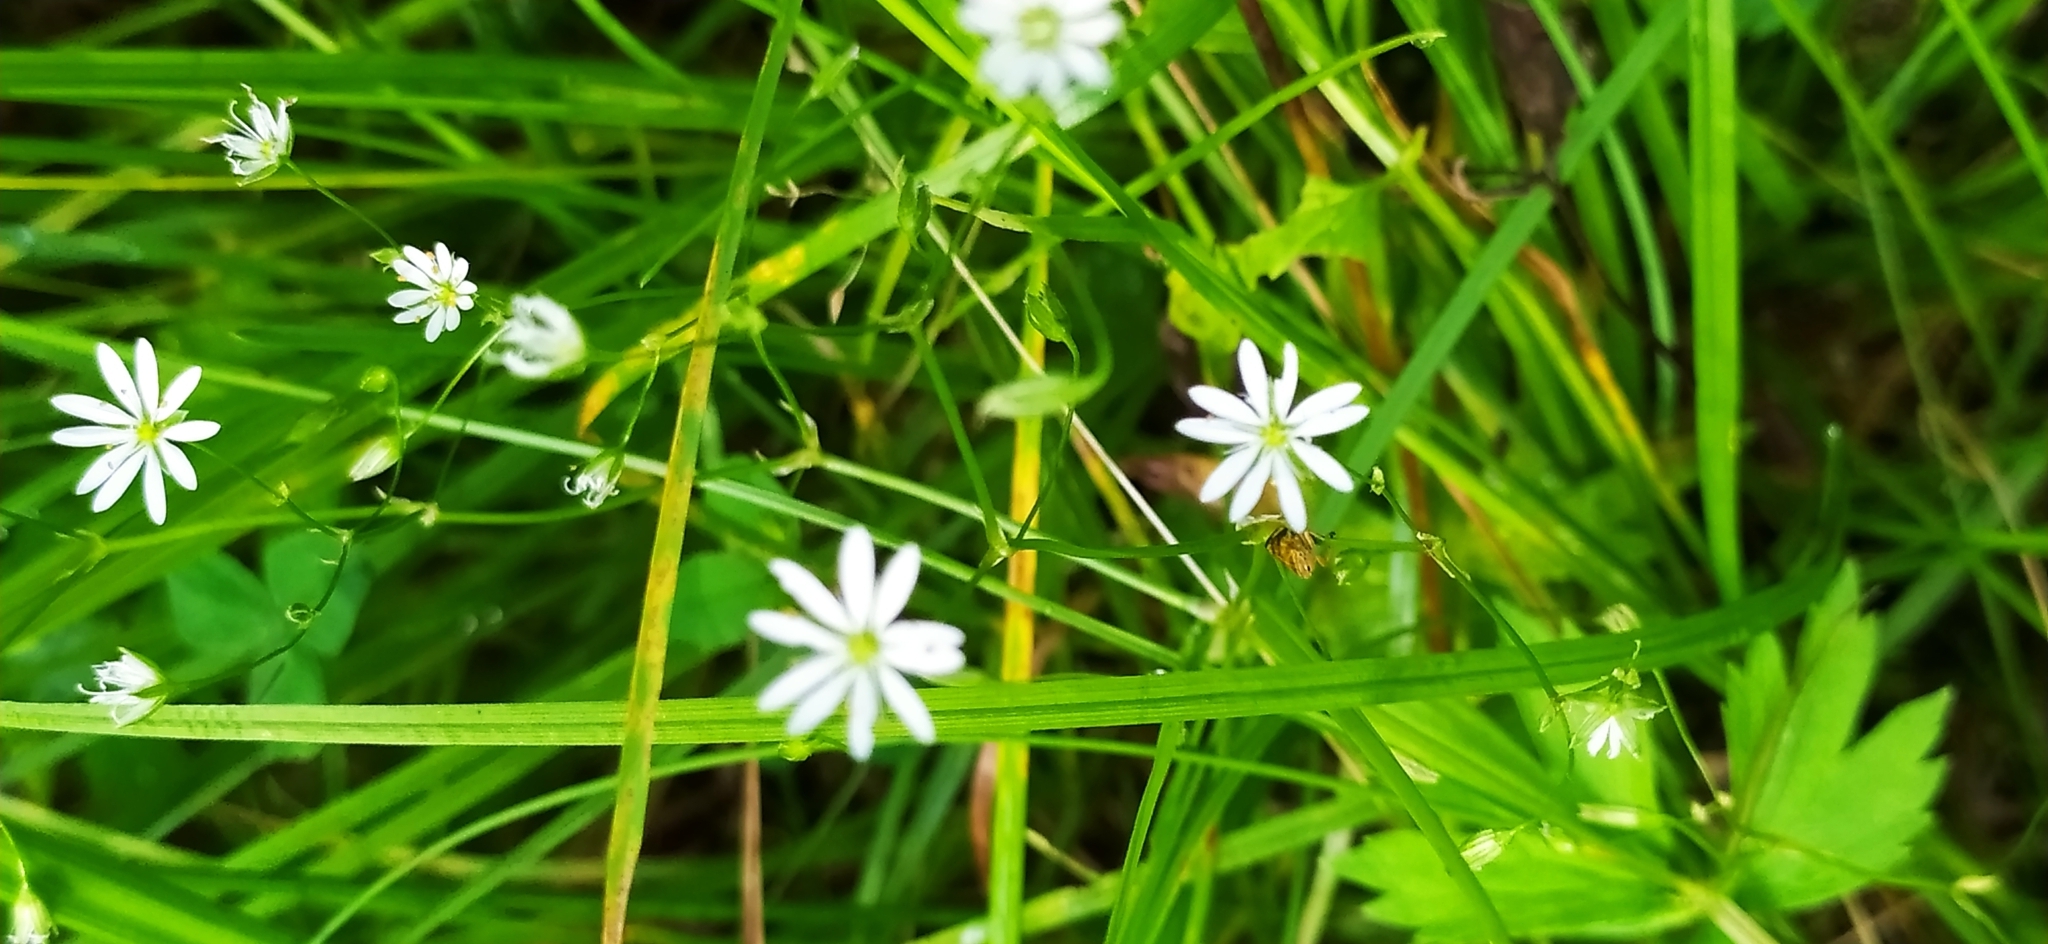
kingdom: Plantae
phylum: Tracheophyta
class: Magnoliopsida
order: Caryophyllales
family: Caryophyllaceae
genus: Stellaria
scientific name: Stellaria graminea
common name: Grass-like starwort
